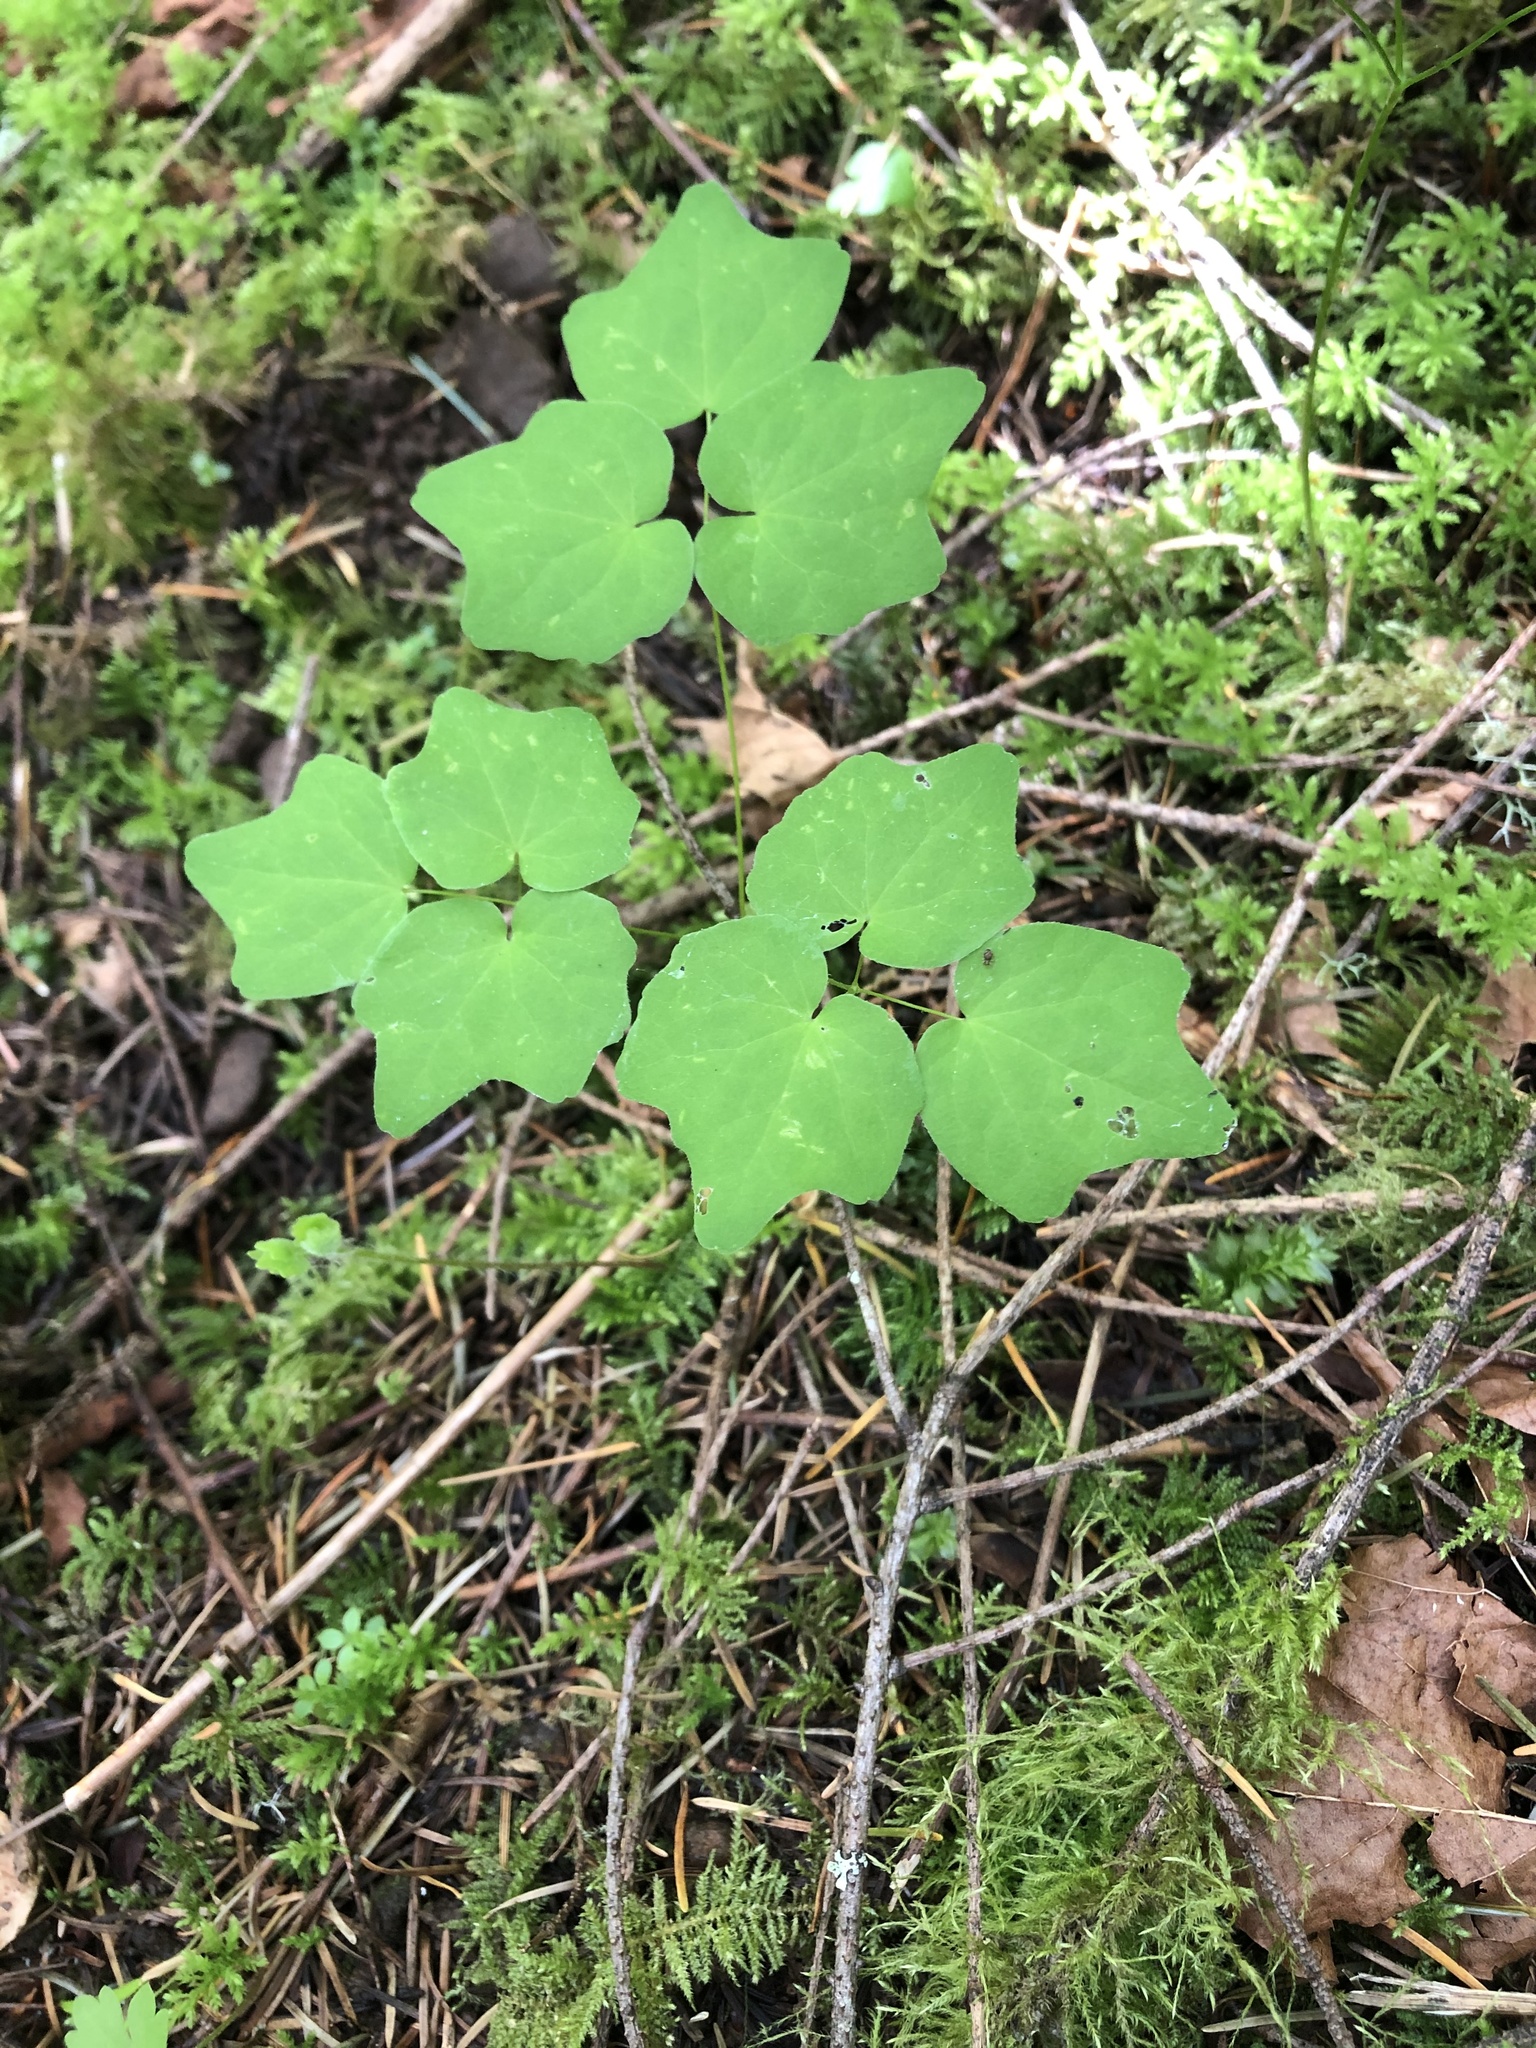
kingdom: Plantae
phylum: Tracheophyta
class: Magnoliopsida
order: Ranunculales
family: Berberidaceae
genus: Vancouveria
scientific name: Vancouveria hexandra
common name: Northern inside-out-flower
